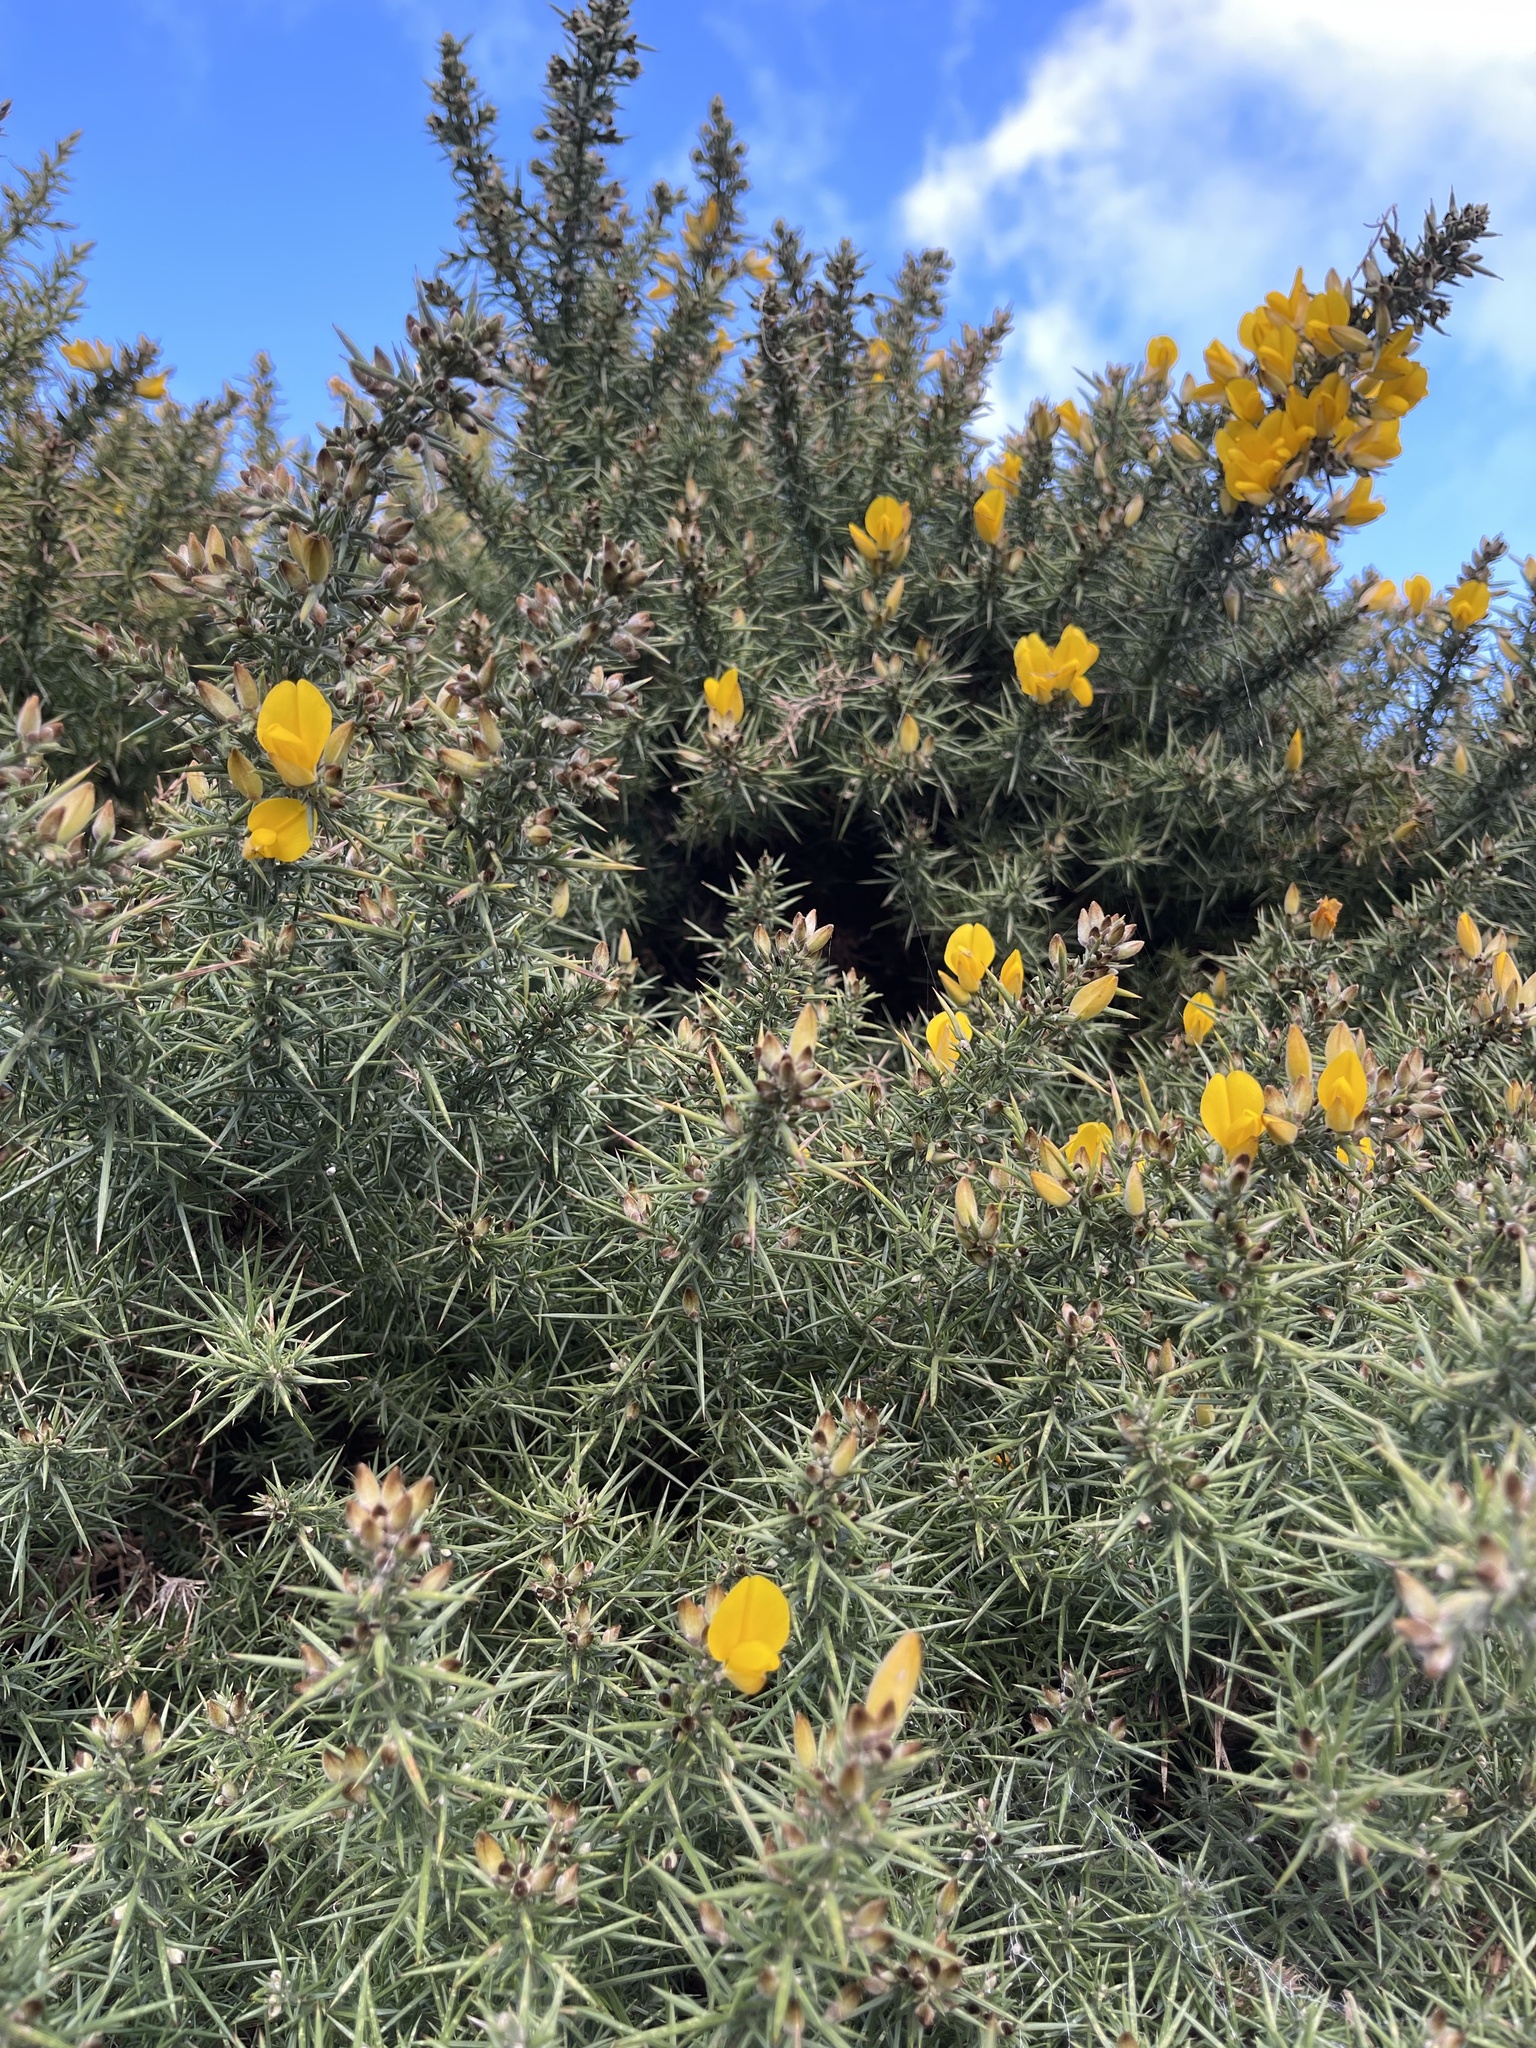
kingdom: Plantae
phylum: Tracheophyta
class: Magnoliopsida
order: Fabales
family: Fabaceae
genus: Ulex
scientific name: Ulex europaeus
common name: Common gorse
